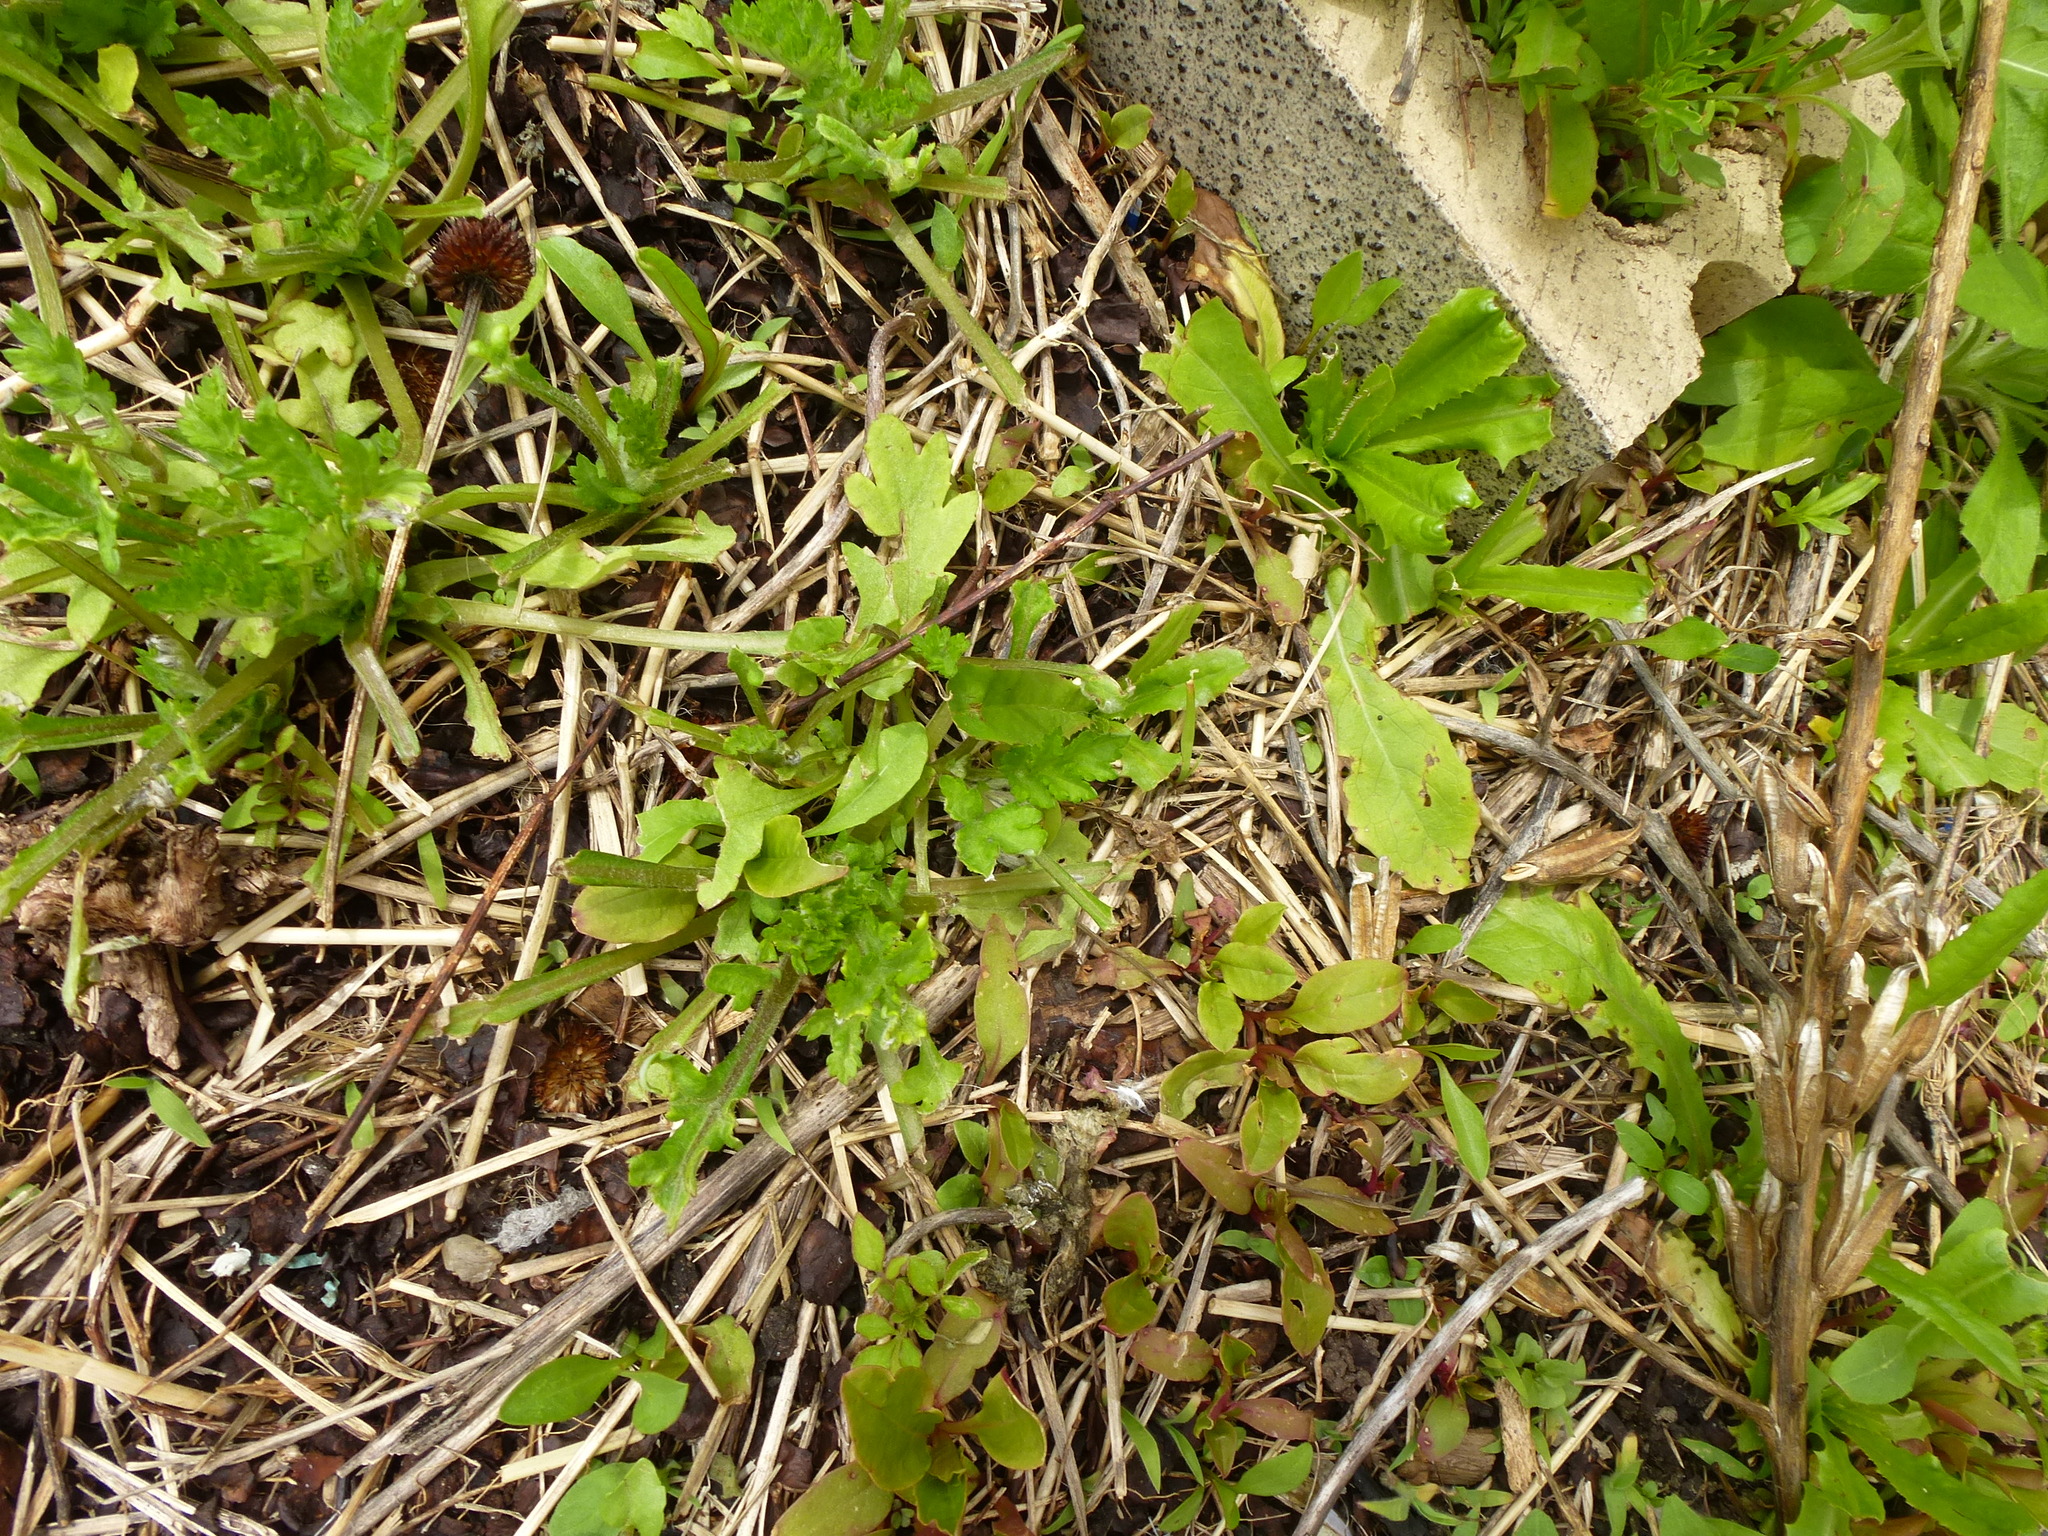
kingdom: Plantae
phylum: Tracheophyta
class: Magnoliopsida
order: Asterales
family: Asteraceae
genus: Artemisia
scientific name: Artemisia vulgaris
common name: Mugwort
